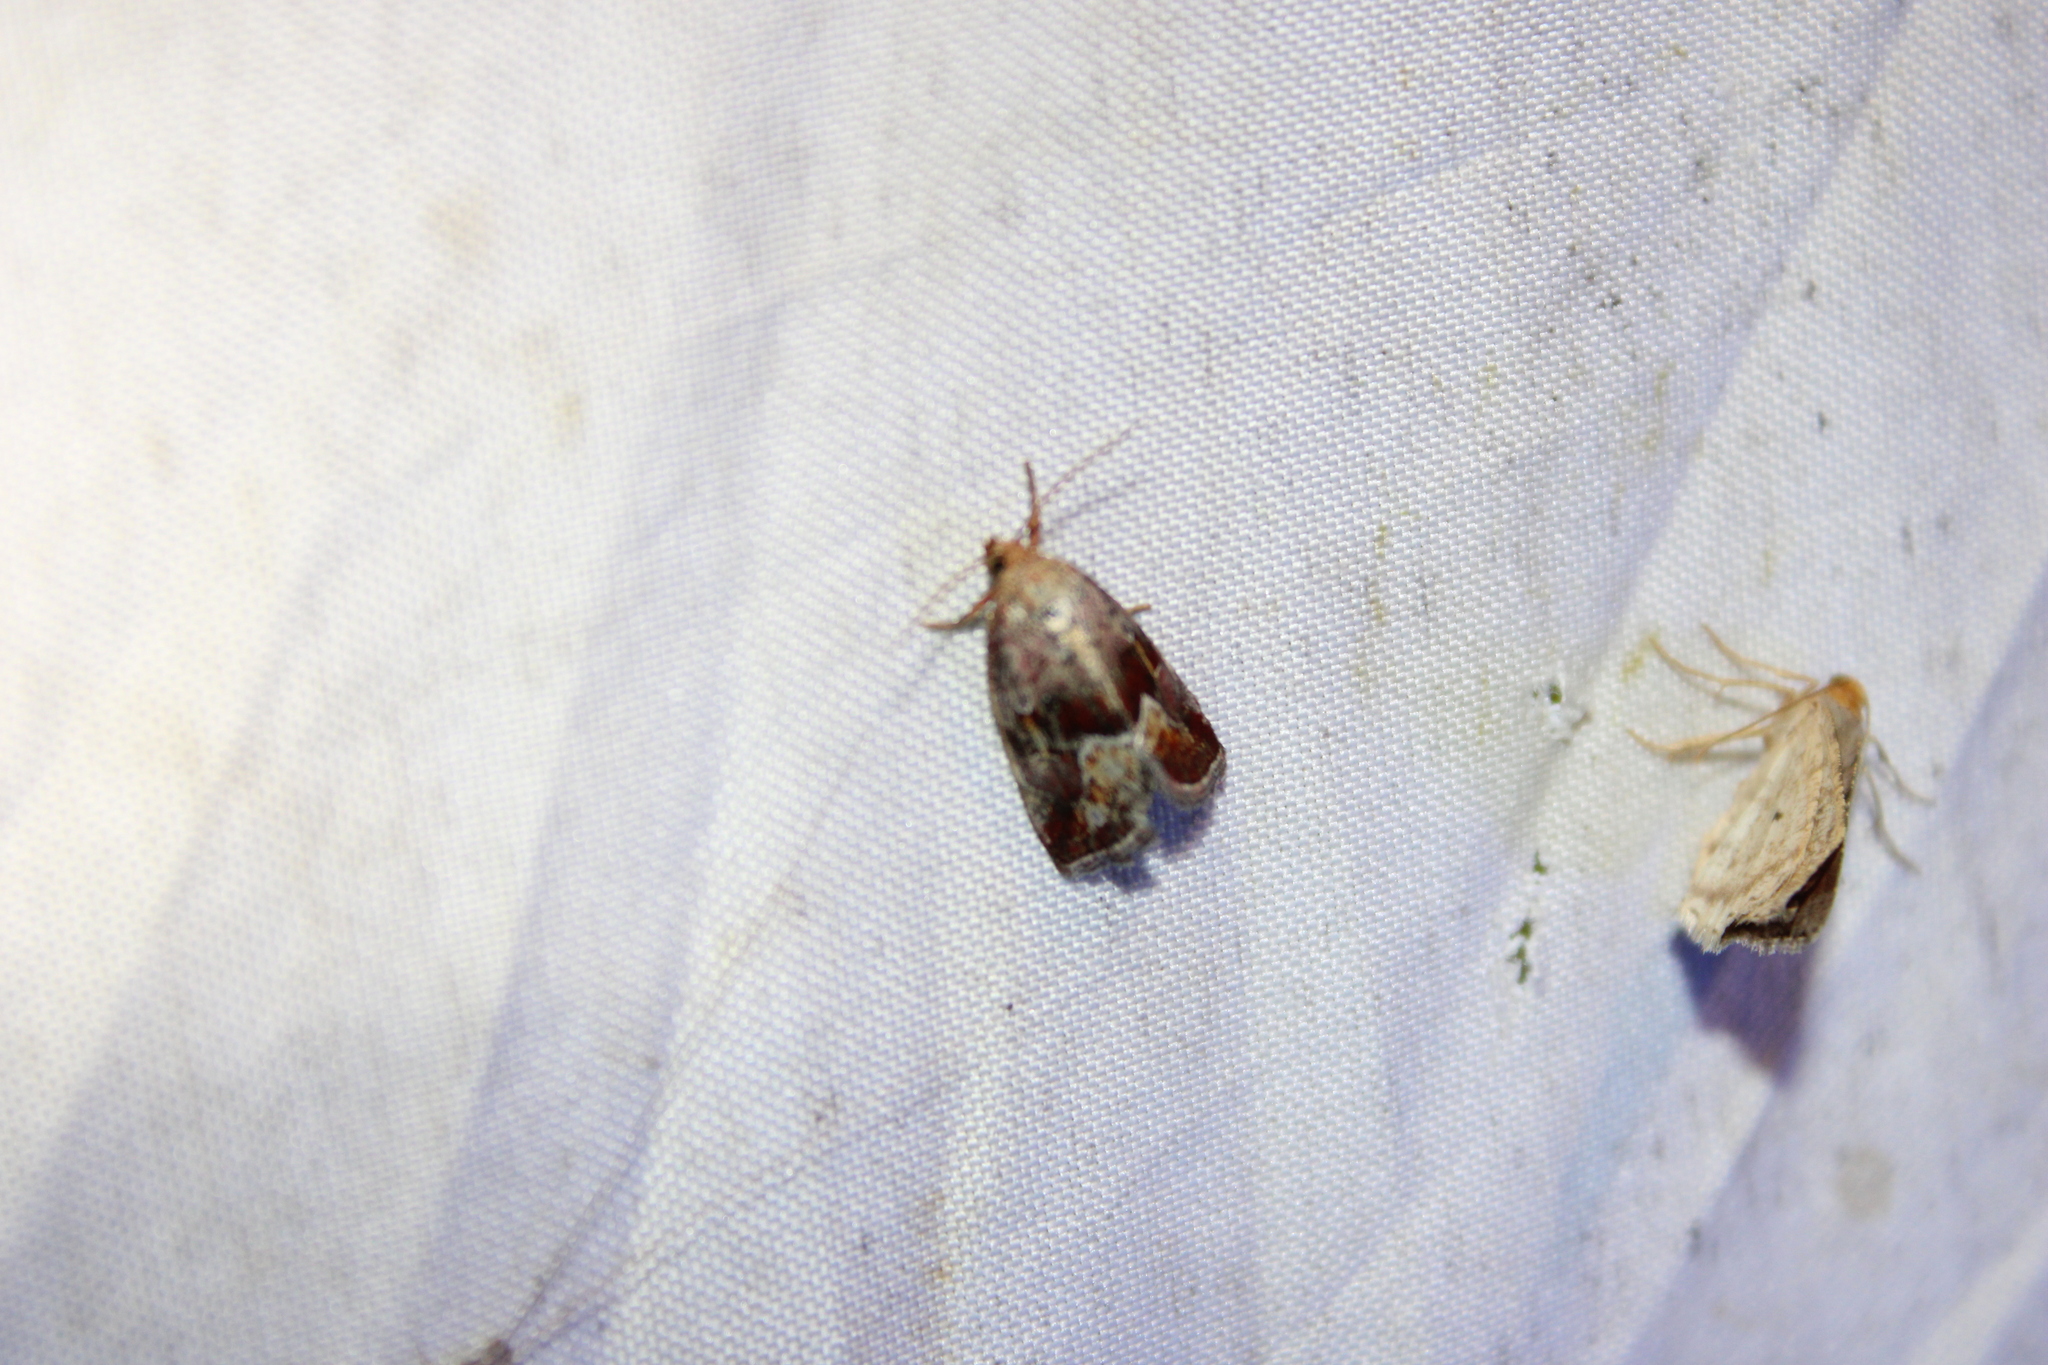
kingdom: Animalia
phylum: Arthropoda
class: Insecta
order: Lepidoptera
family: Noctuidae
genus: Deltote
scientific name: Deltote bellicula
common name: Bog glyph
